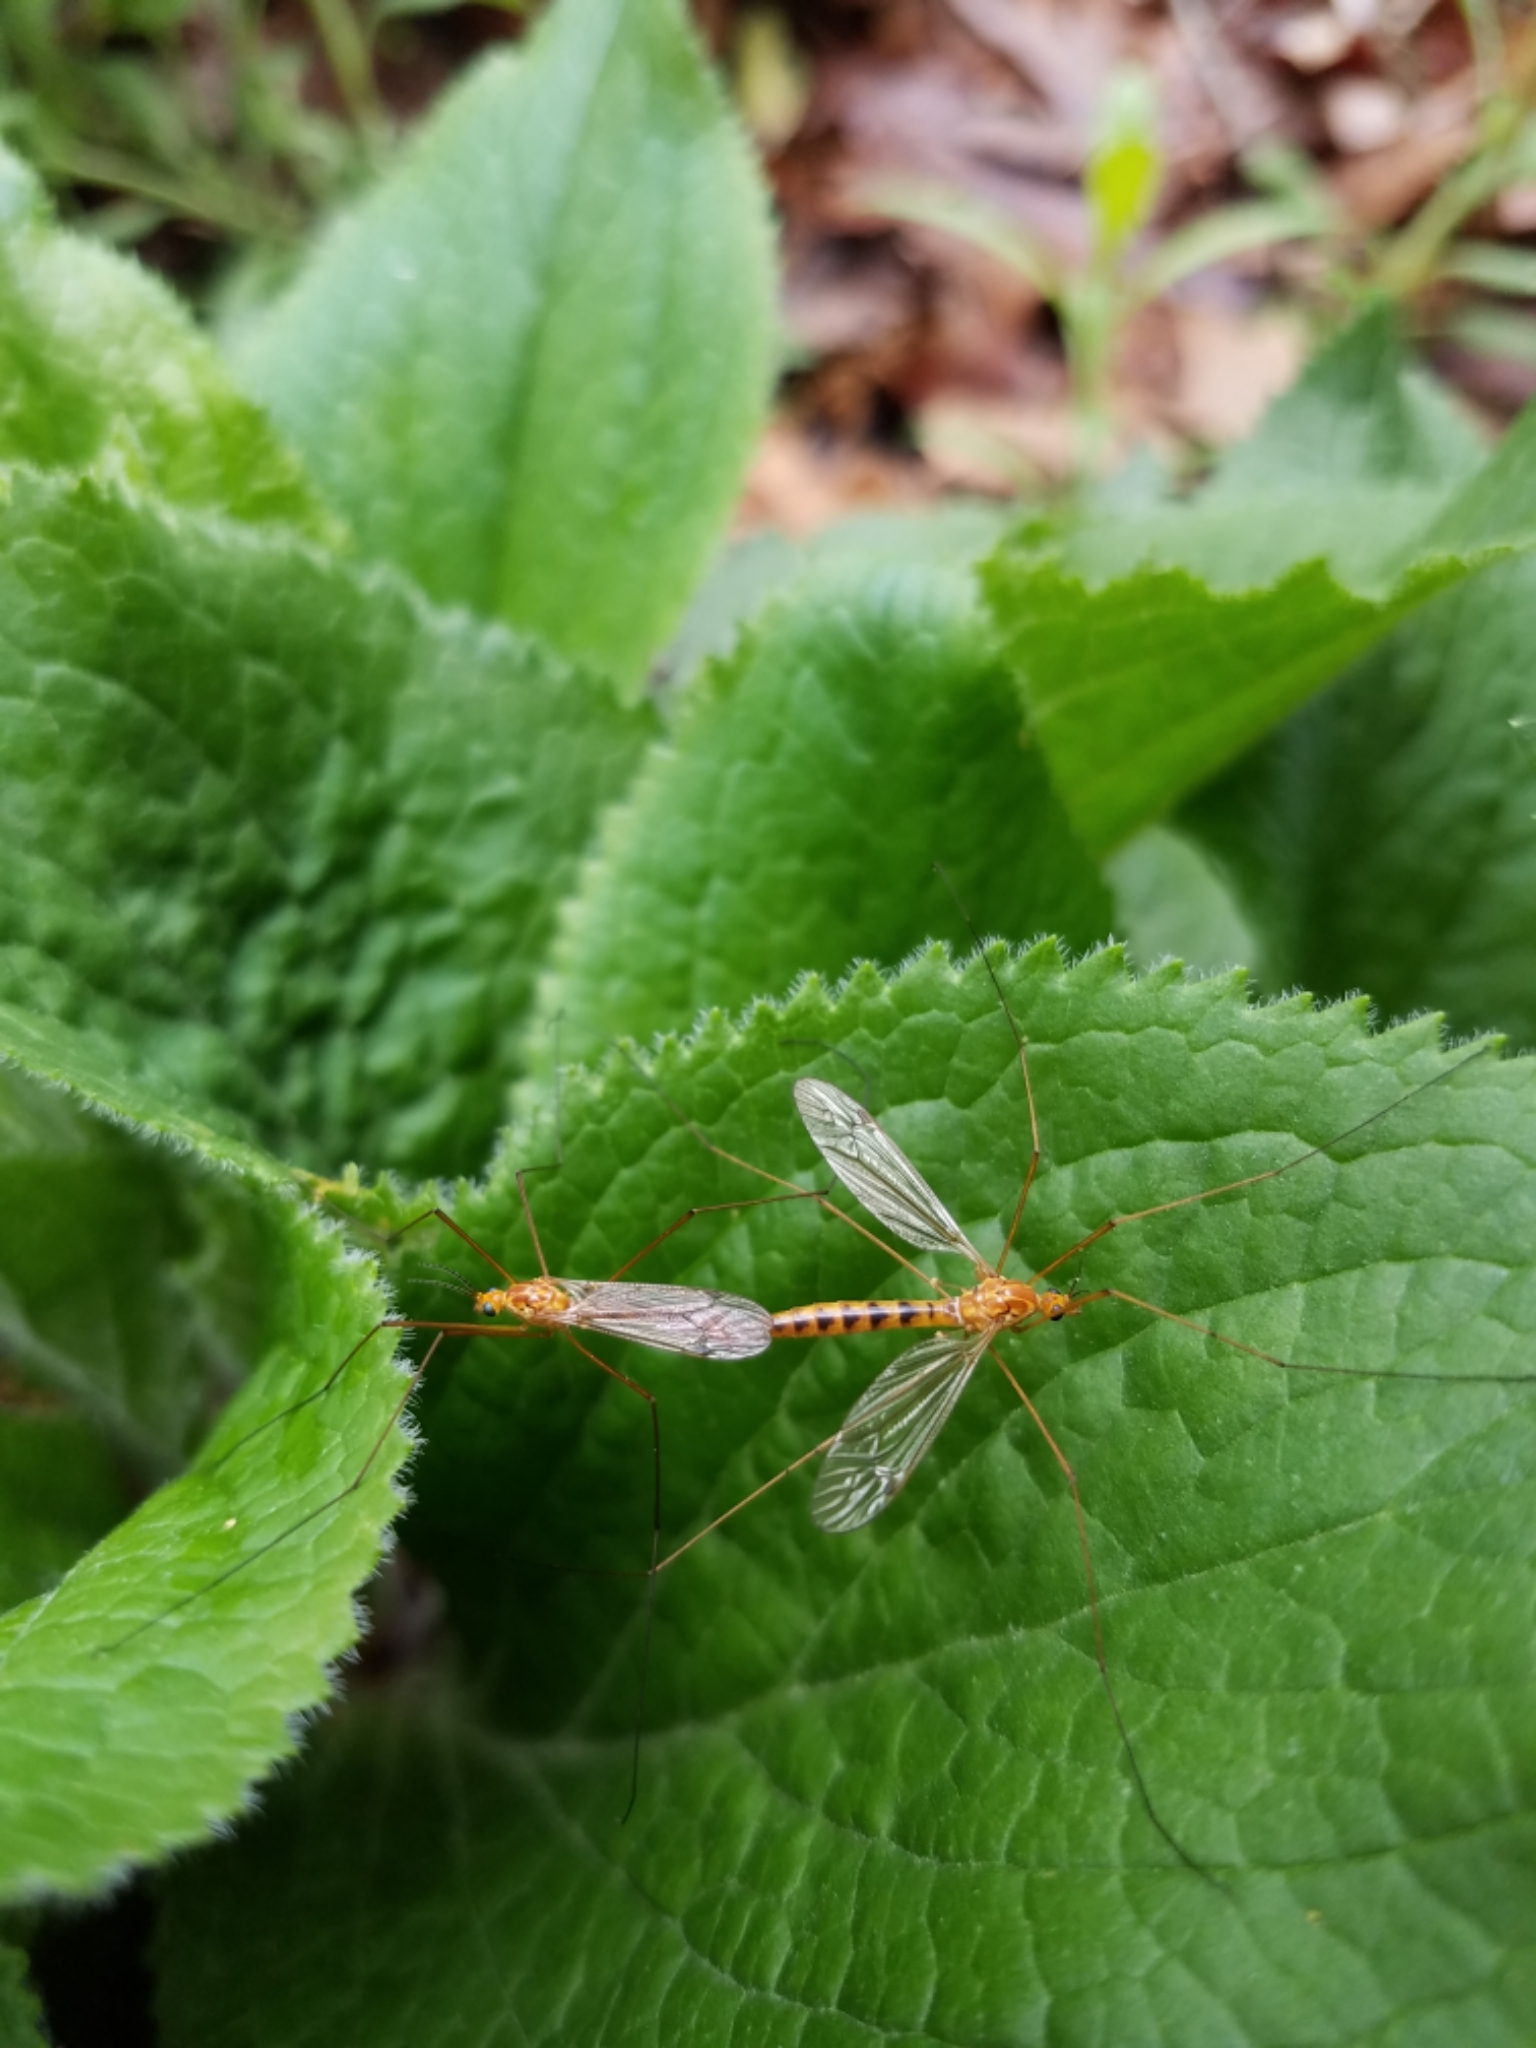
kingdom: Animalia
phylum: Arthropoda
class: Insecta
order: Diptera
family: Tipulidae
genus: Nephrotoma
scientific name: Nephrotoma ferruginea
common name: Ferruginous tiger crane fly
